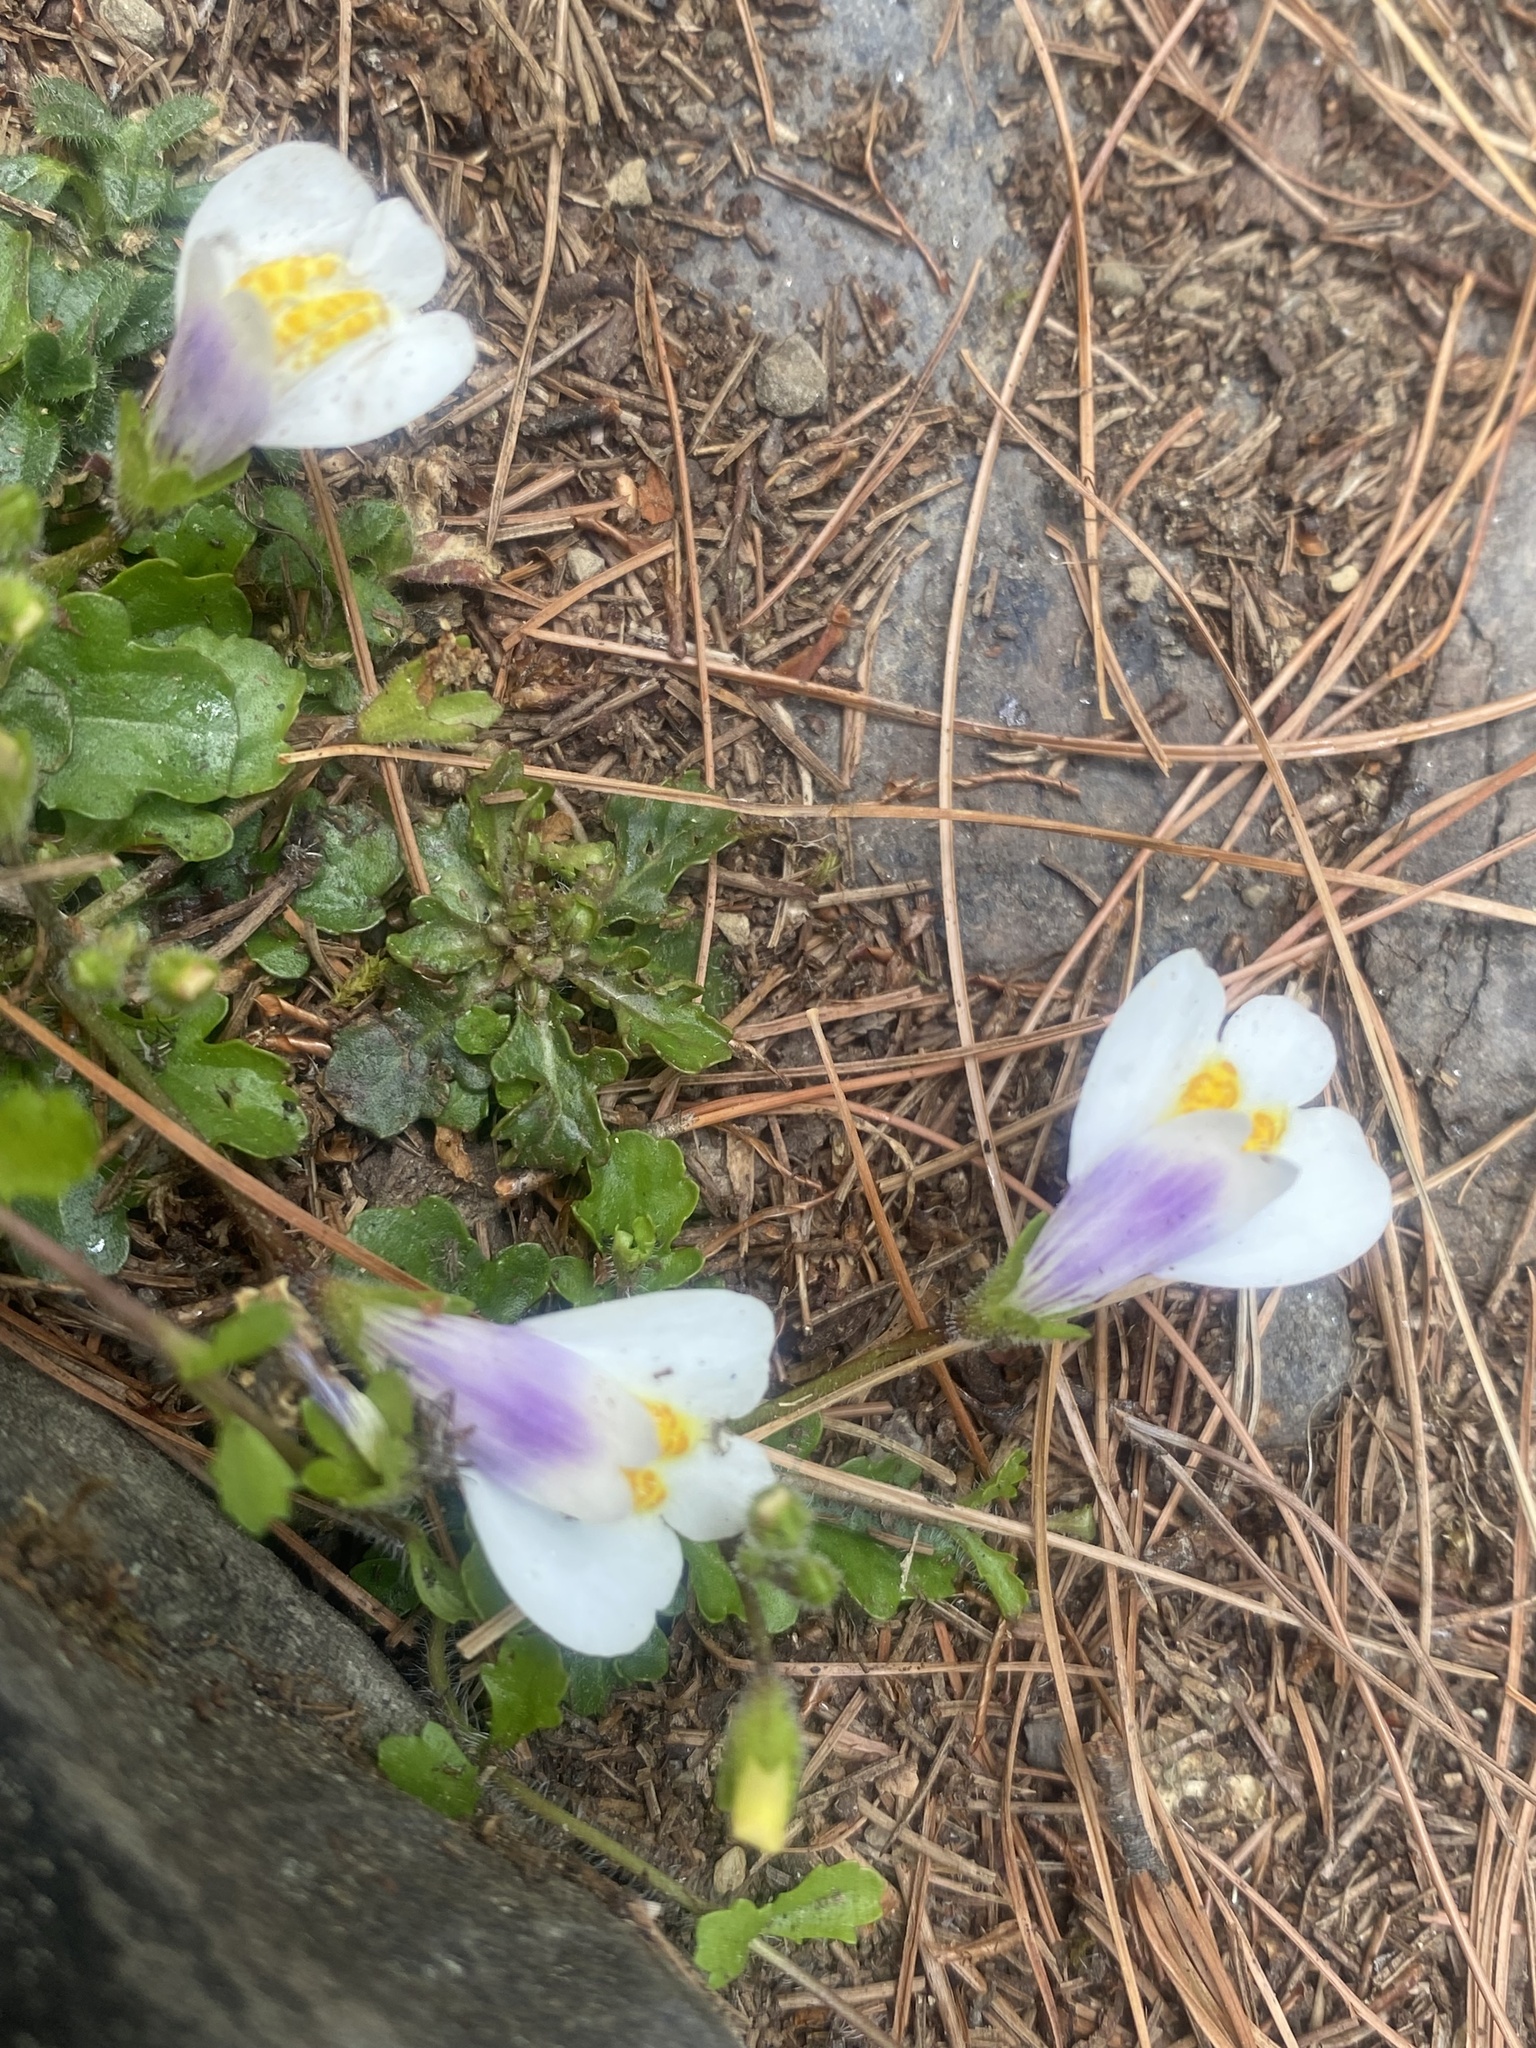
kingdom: Plantae
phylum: Tracheophyta
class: Magnoliopsida
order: Lamiales
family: Mazaceae
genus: Mazus
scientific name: Mazus alpinus
